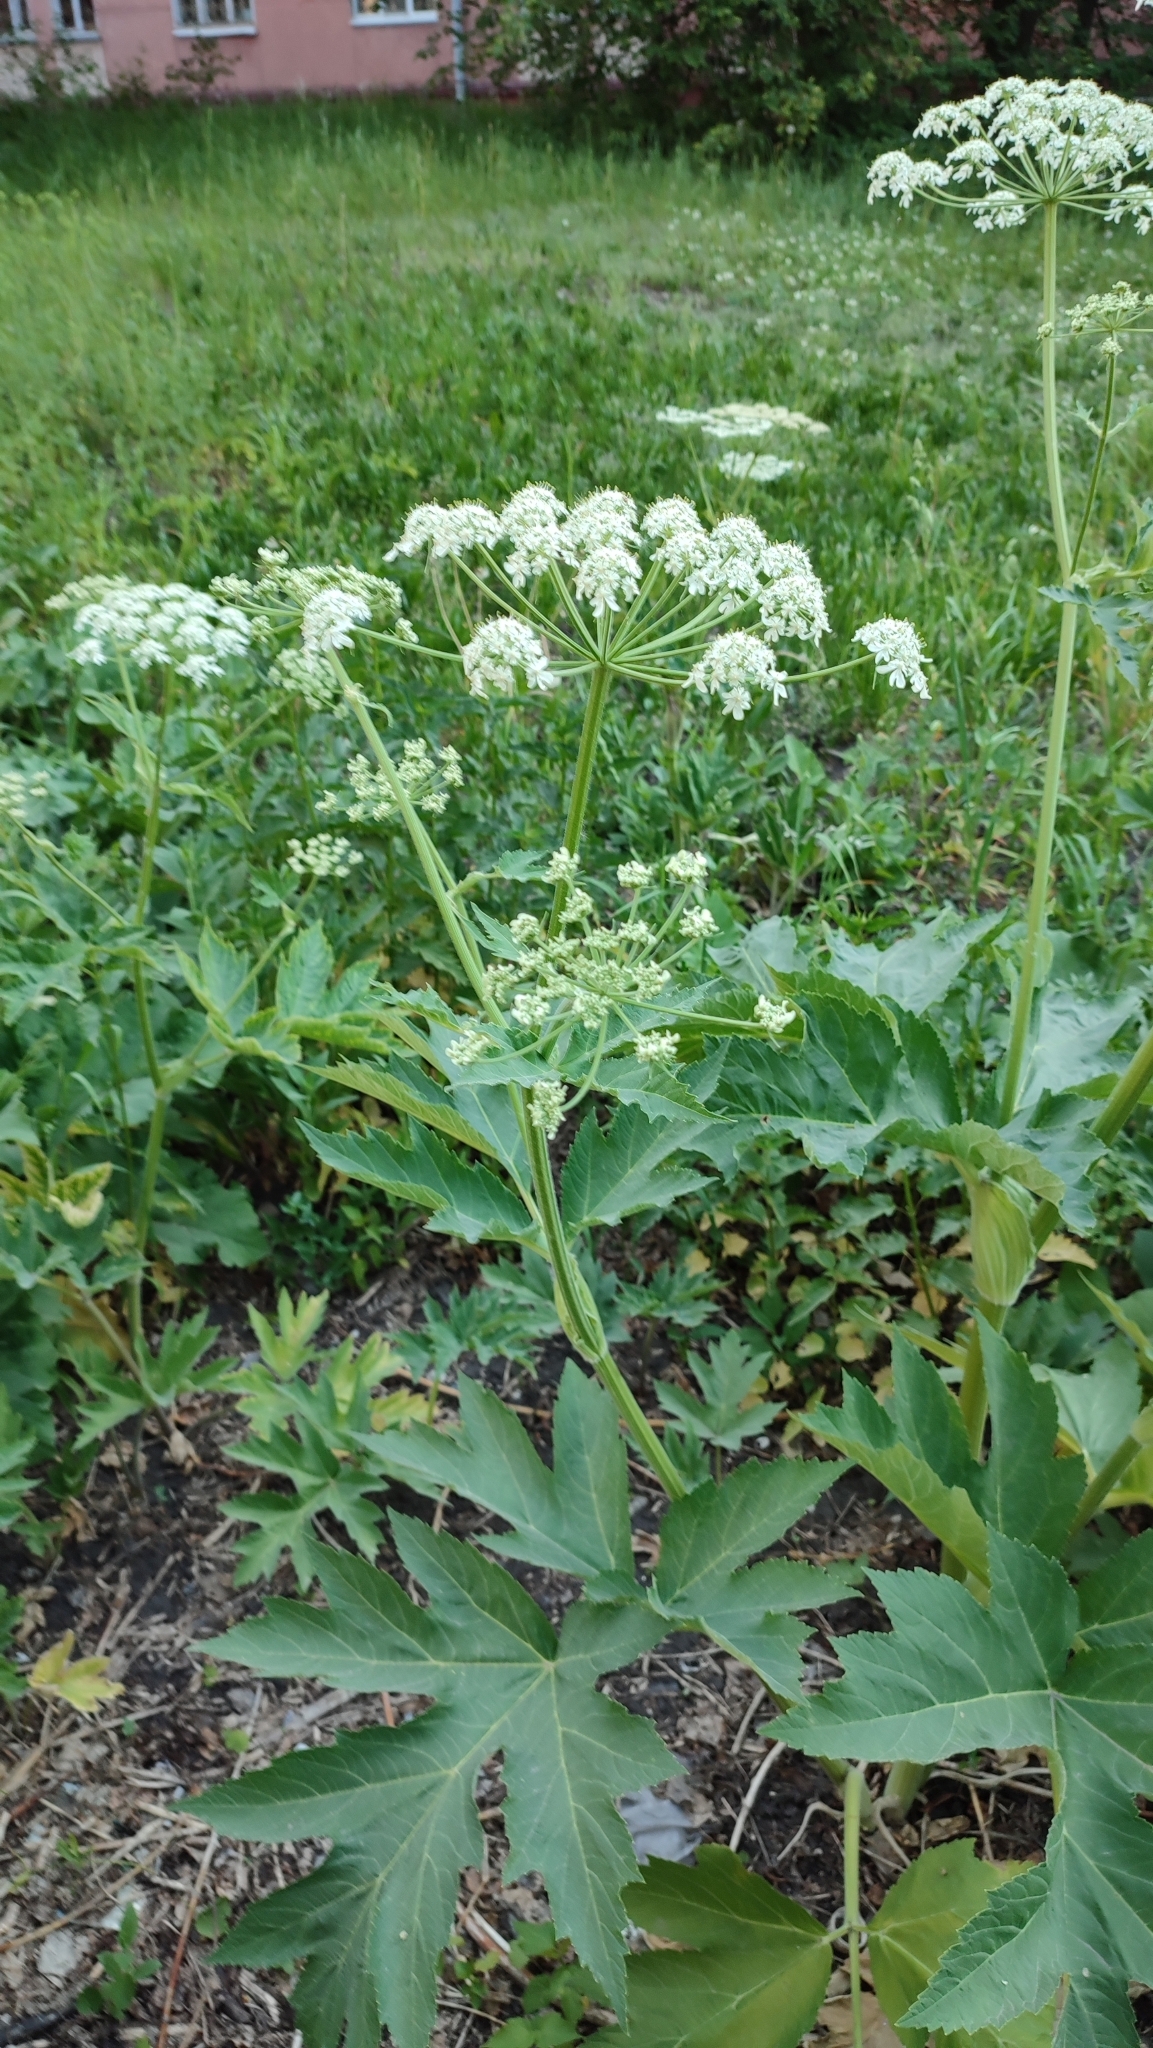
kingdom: Plantae
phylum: Tracheophyta
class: Magnoliopsida
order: Apiales
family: Apiaceae
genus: Heracleum
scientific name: Heracleum dissectum
